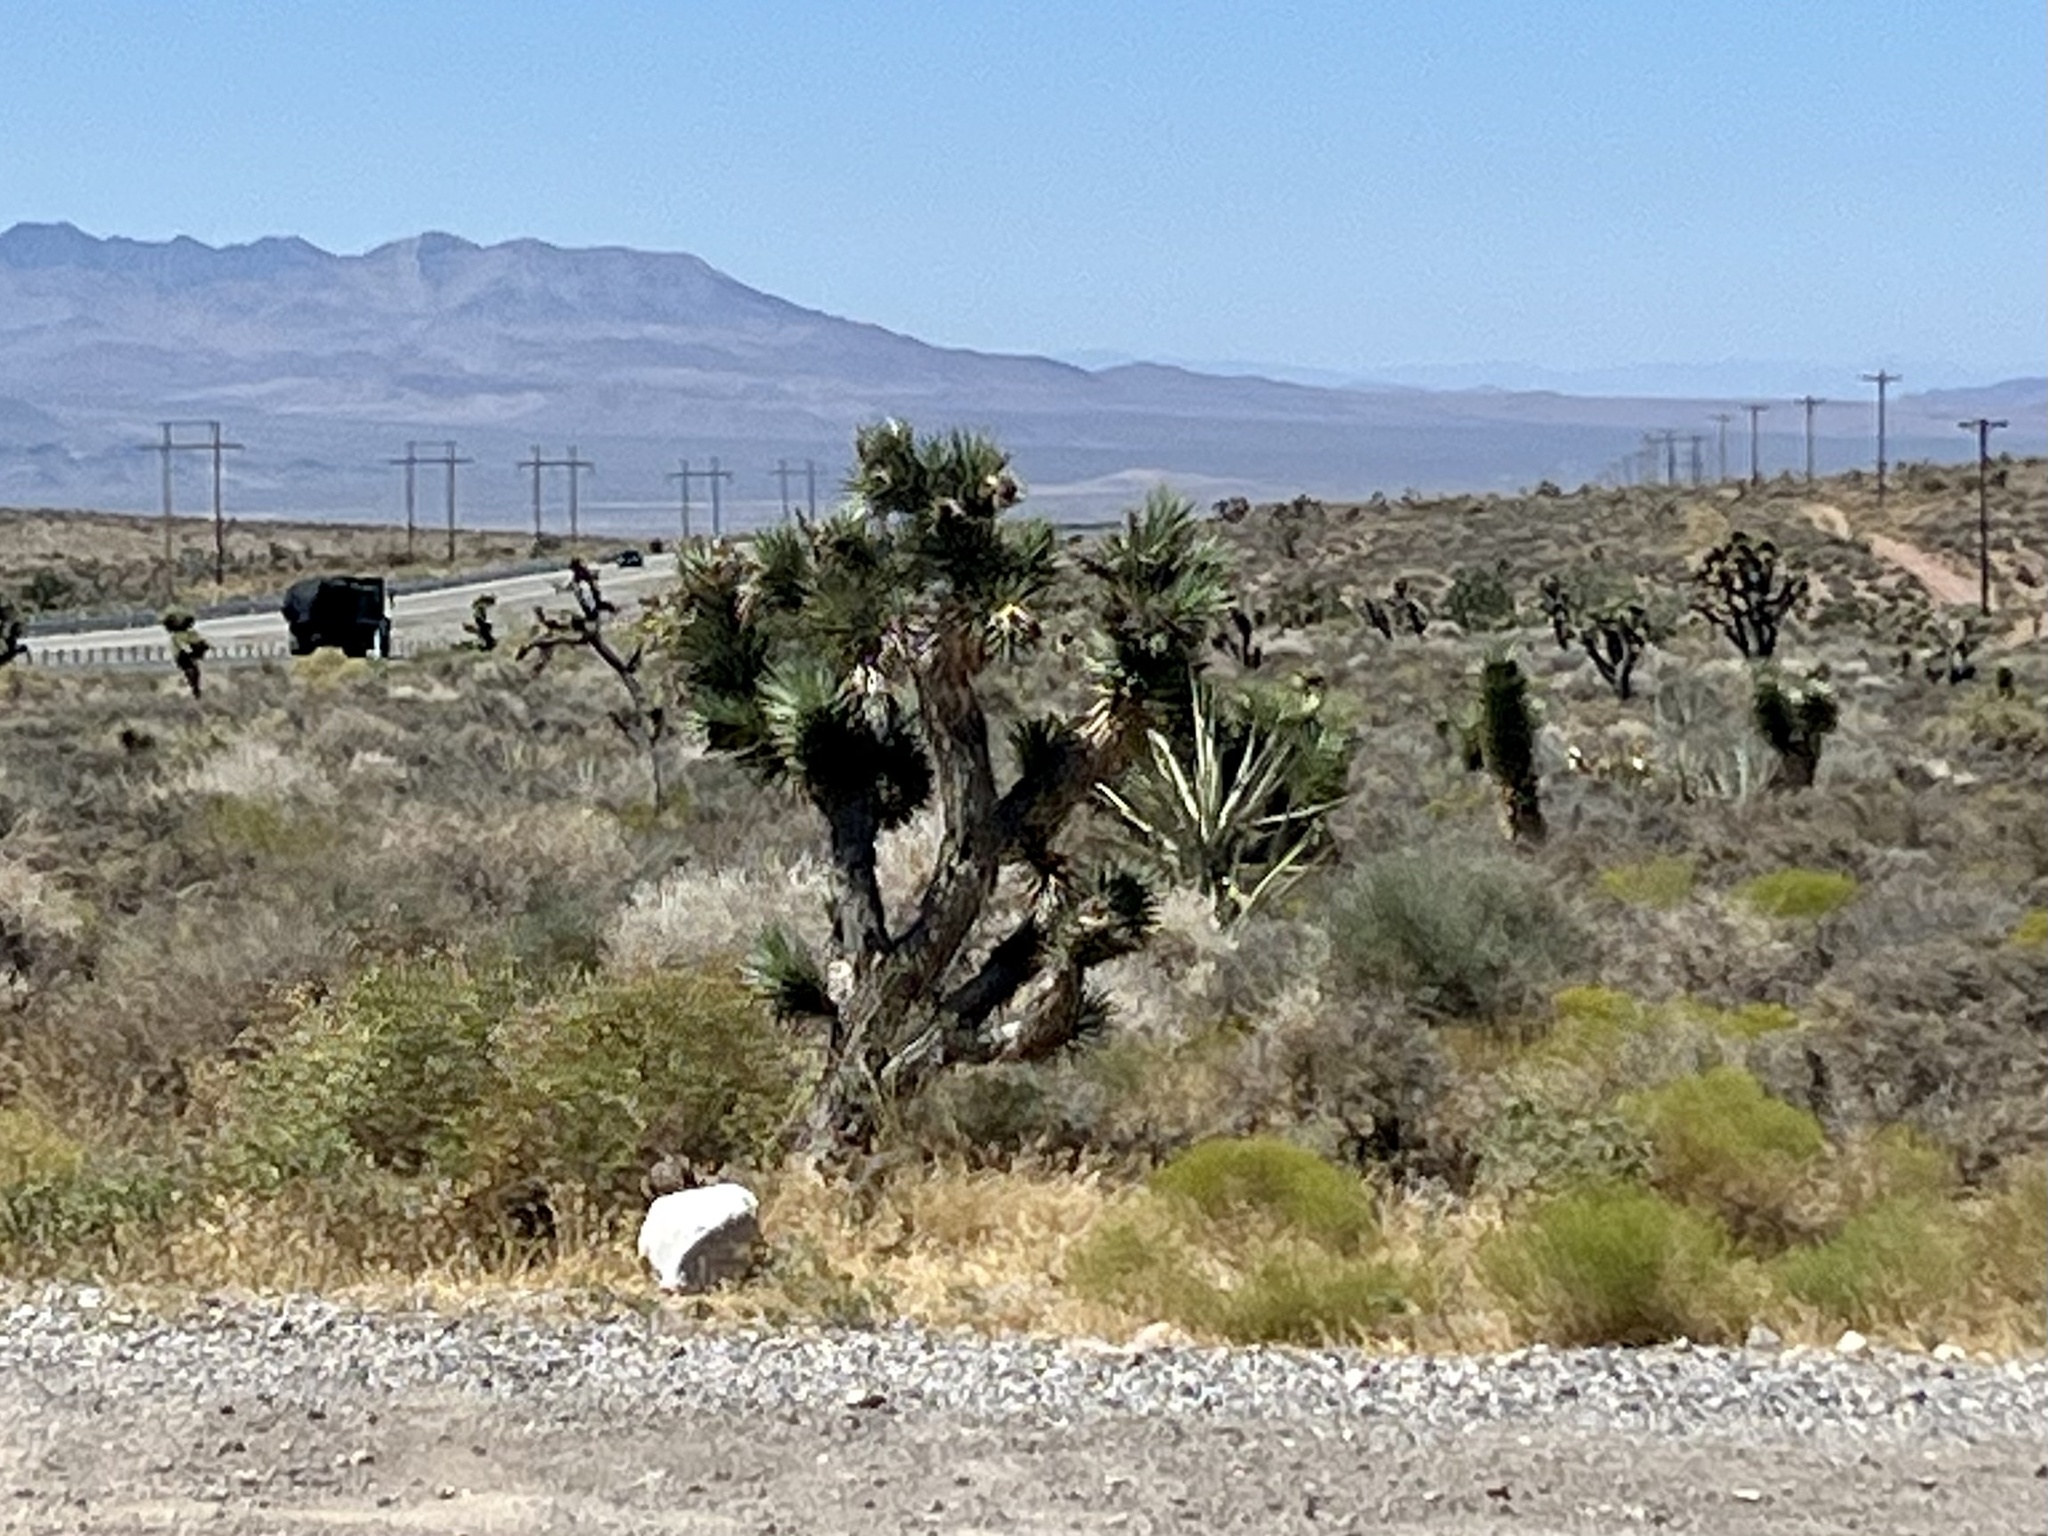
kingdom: Plantae
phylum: Tracheophyta
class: Liliopsida
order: Asparagales
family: Asparagaceae
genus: Yucca
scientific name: Yucca brevifolia
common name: Joshua tree
